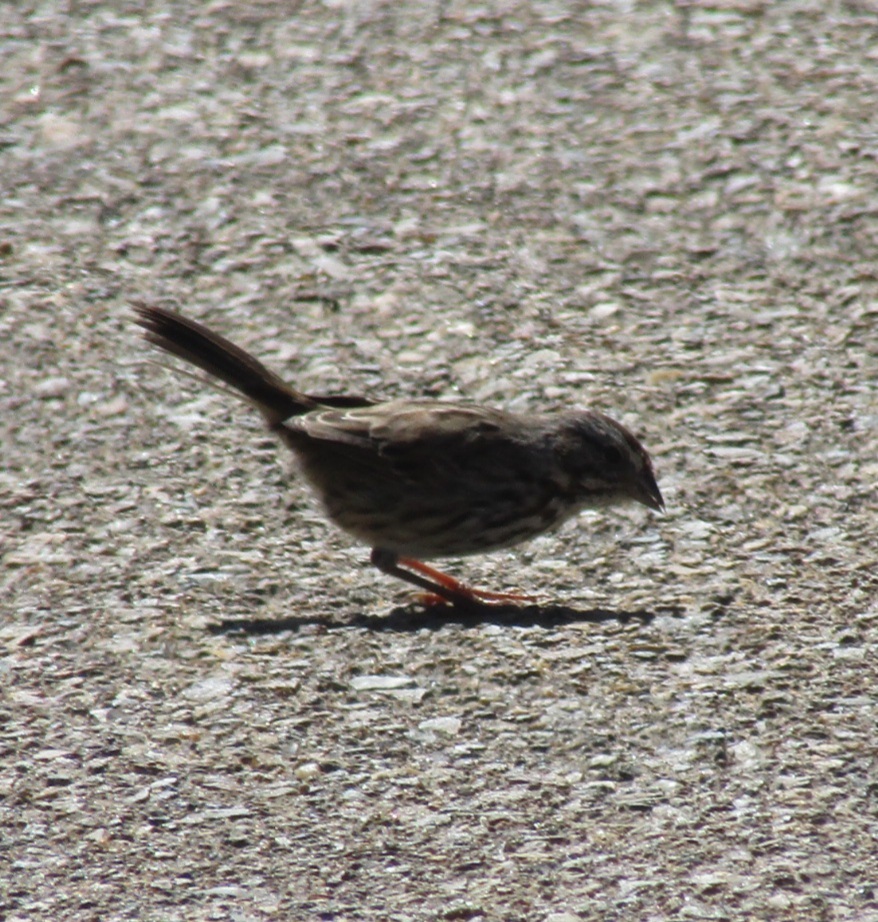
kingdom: Animalia
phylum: Chordata
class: Aves
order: Passeriformes
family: Passerellidae
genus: Melospiza
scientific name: Melospiza melodia
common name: Song sparrow
